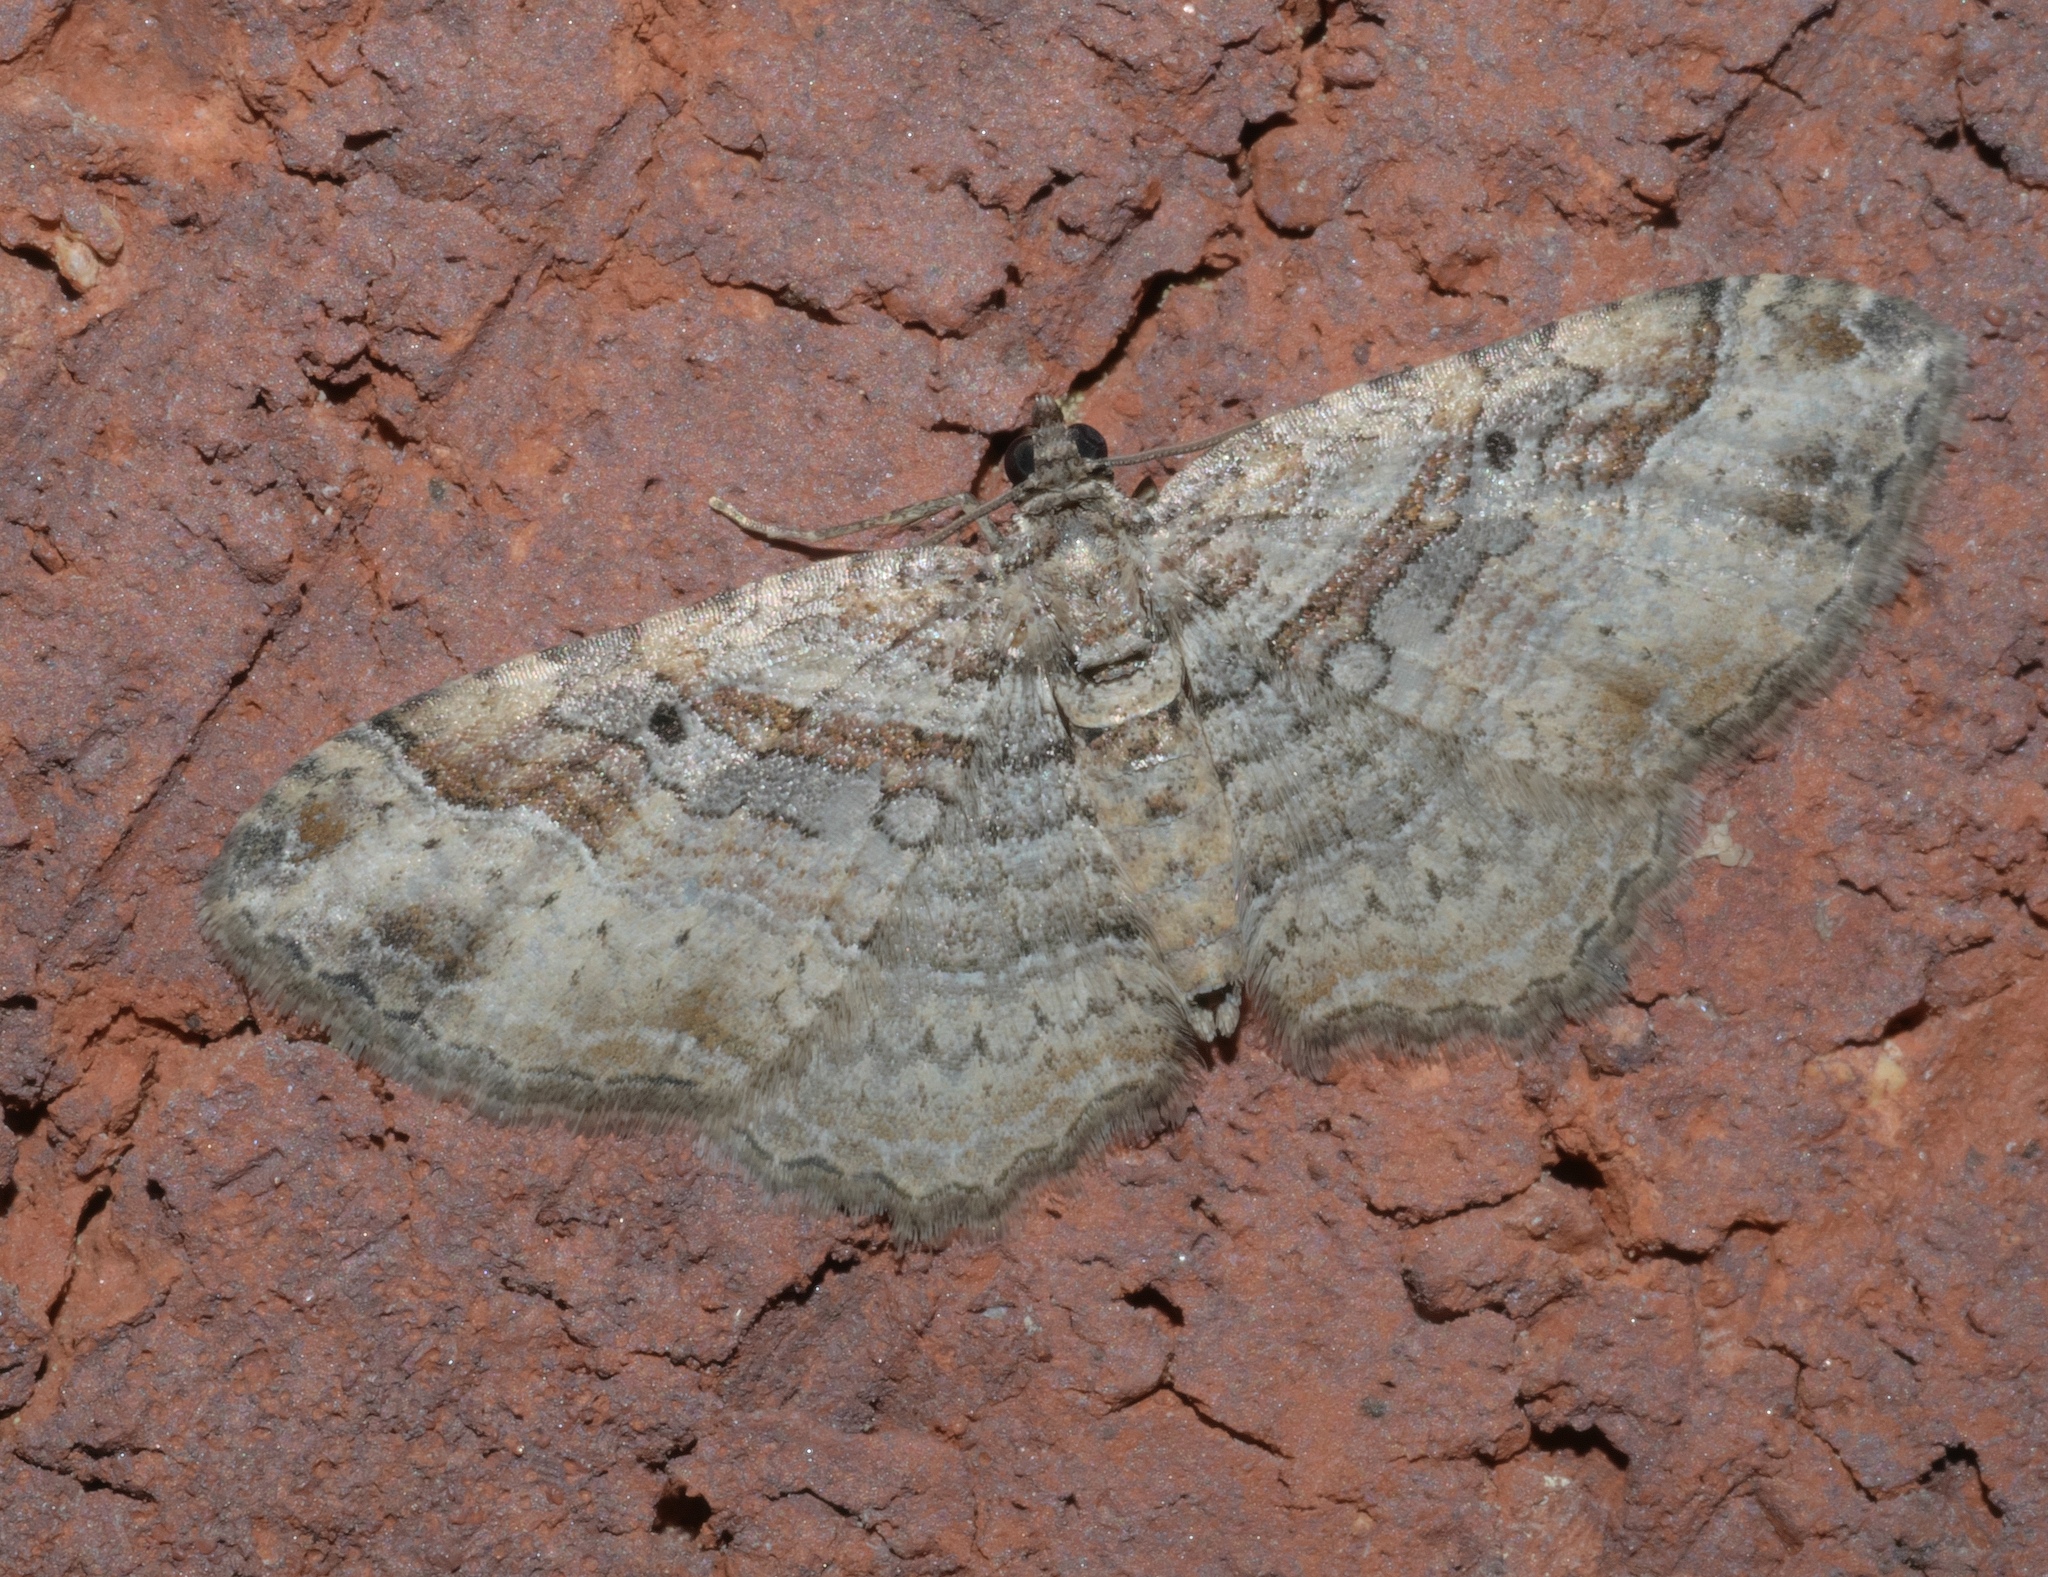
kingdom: Animalia
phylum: Arthropoda
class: Insecta
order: Lepidoptera
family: Geometridae
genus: Costaconvexa
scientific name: Costaconvexa centrostrigaria
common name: Bent-line carpet
